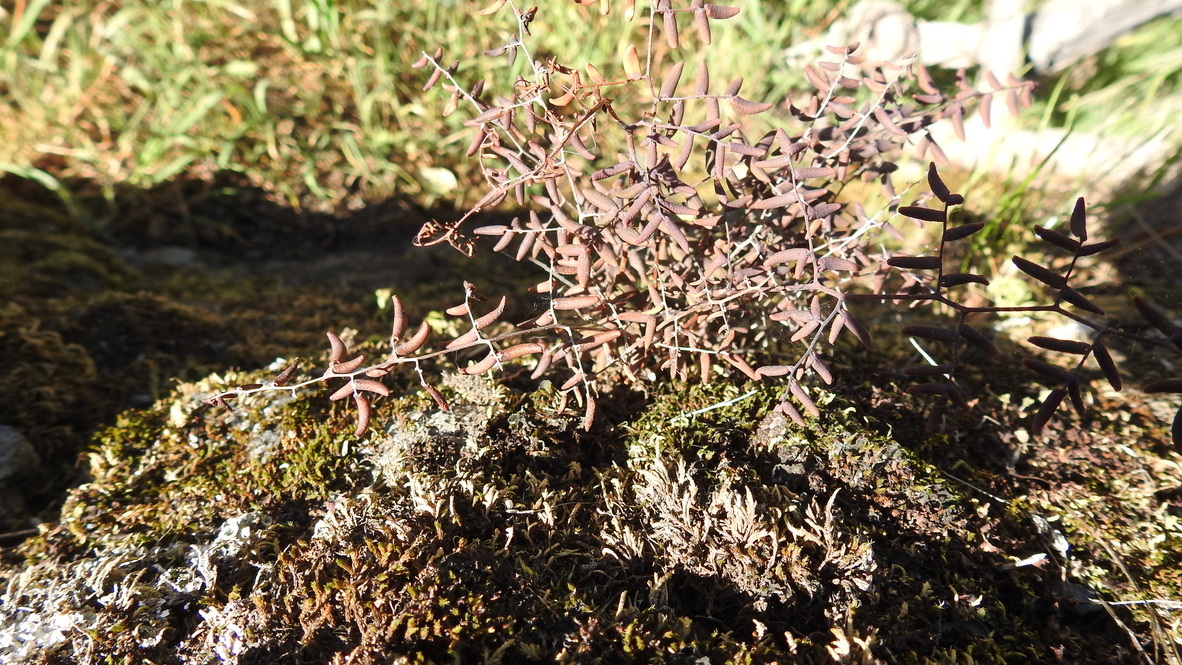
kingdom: Plantae
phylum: Tracheophyta
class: Polypodiopsida
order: Polypodiales
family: Pteridaceae
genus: Pellaea
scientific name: Pellaea andromedifolia
